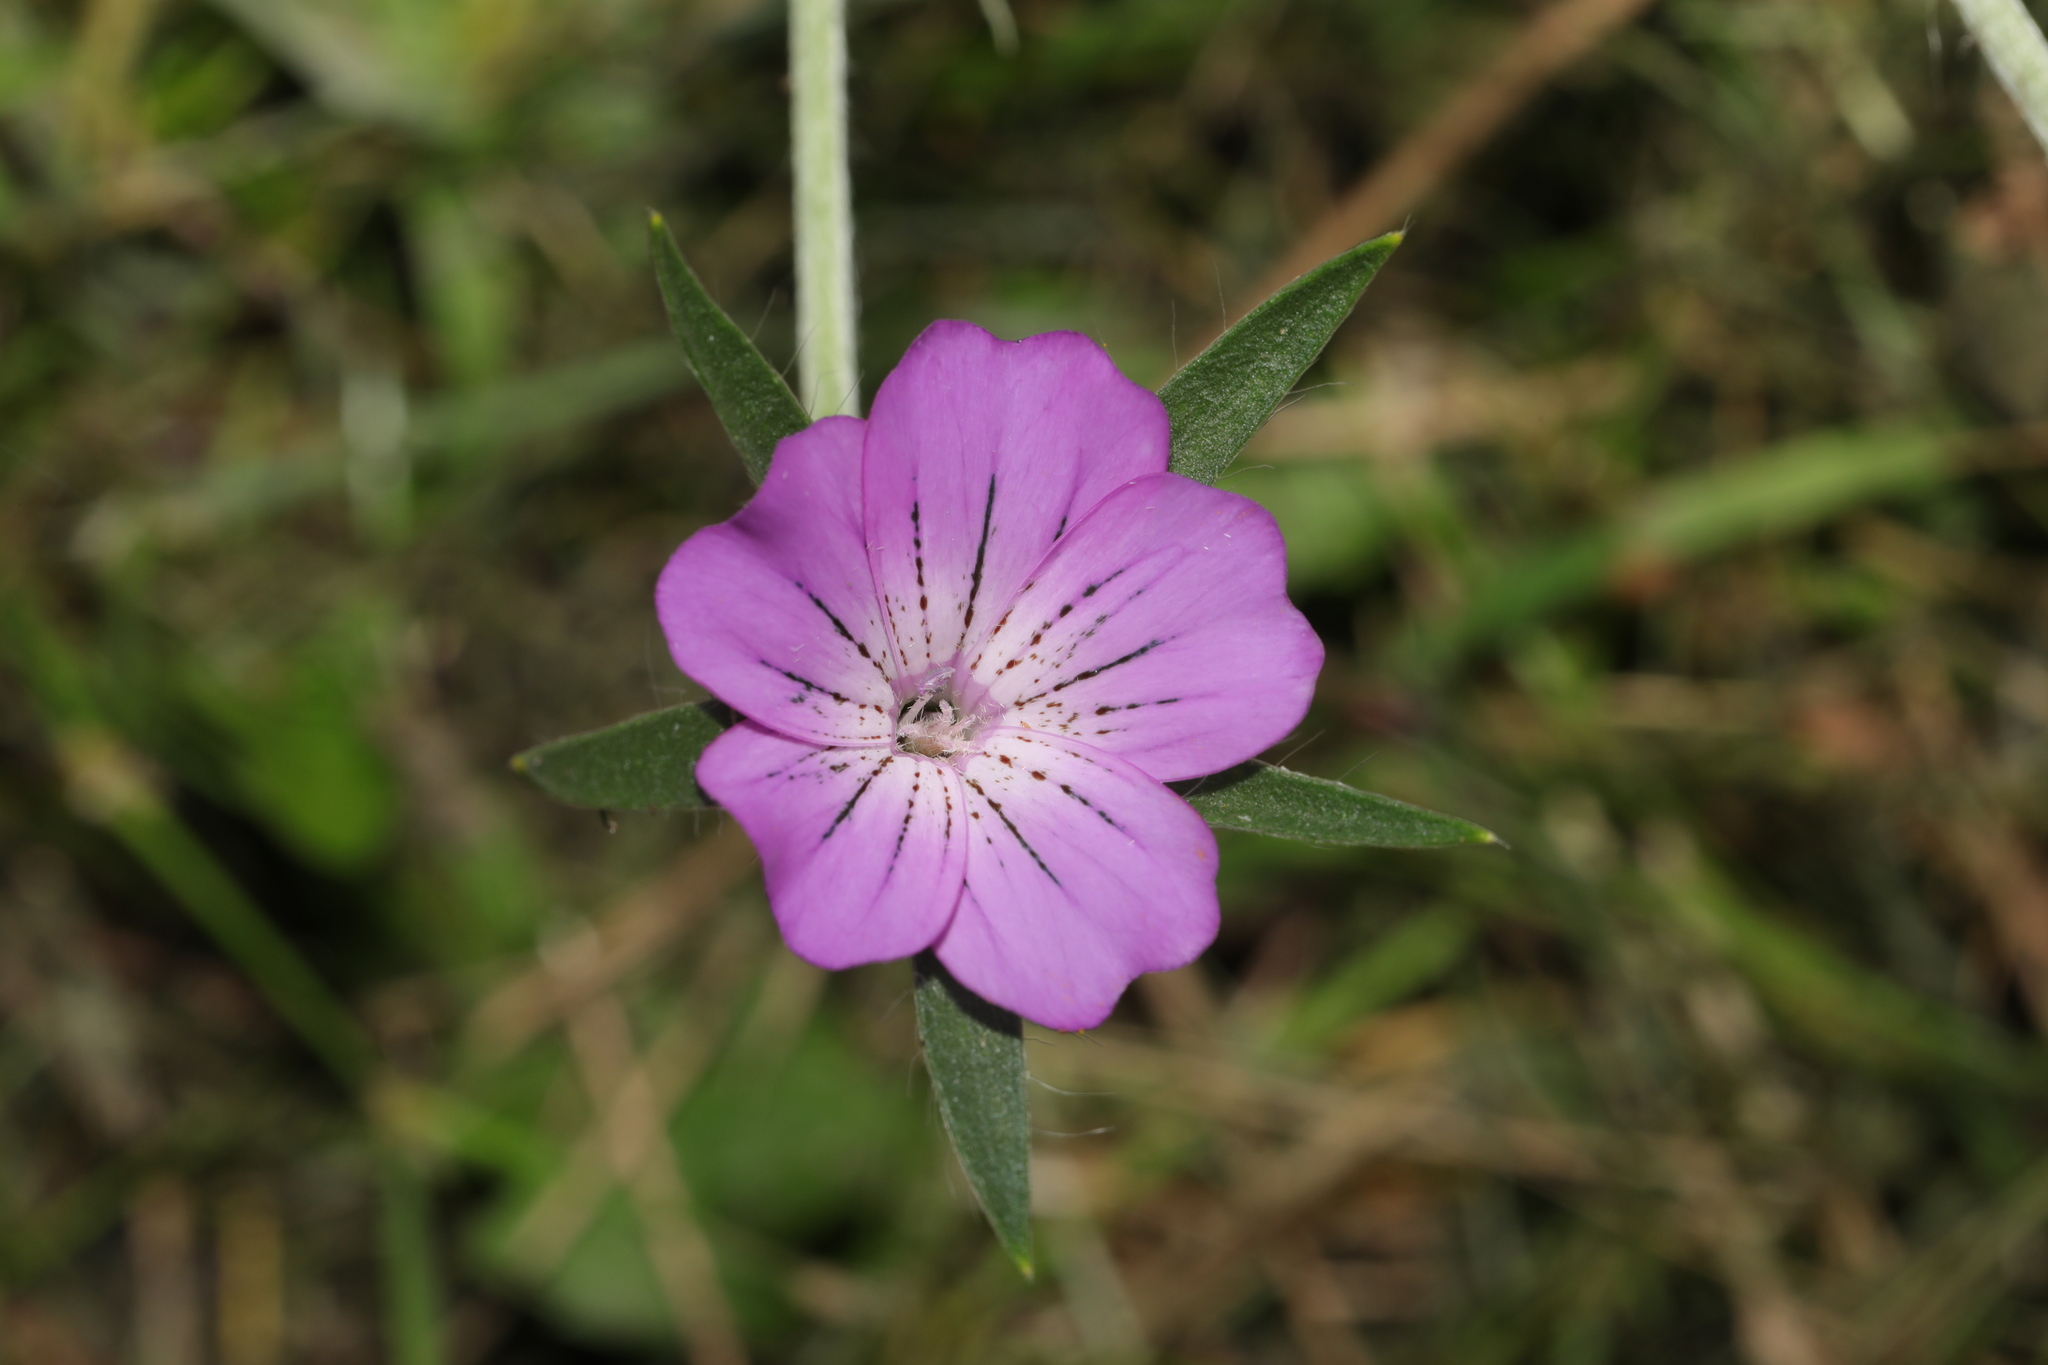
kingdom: Plantae
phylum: Tracheophyta
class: Magnoliopsida
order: Caryophyllales
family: Caryophyllaceae
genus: Agrostemma
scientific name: Agrostemma githago
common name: Common corncockle
